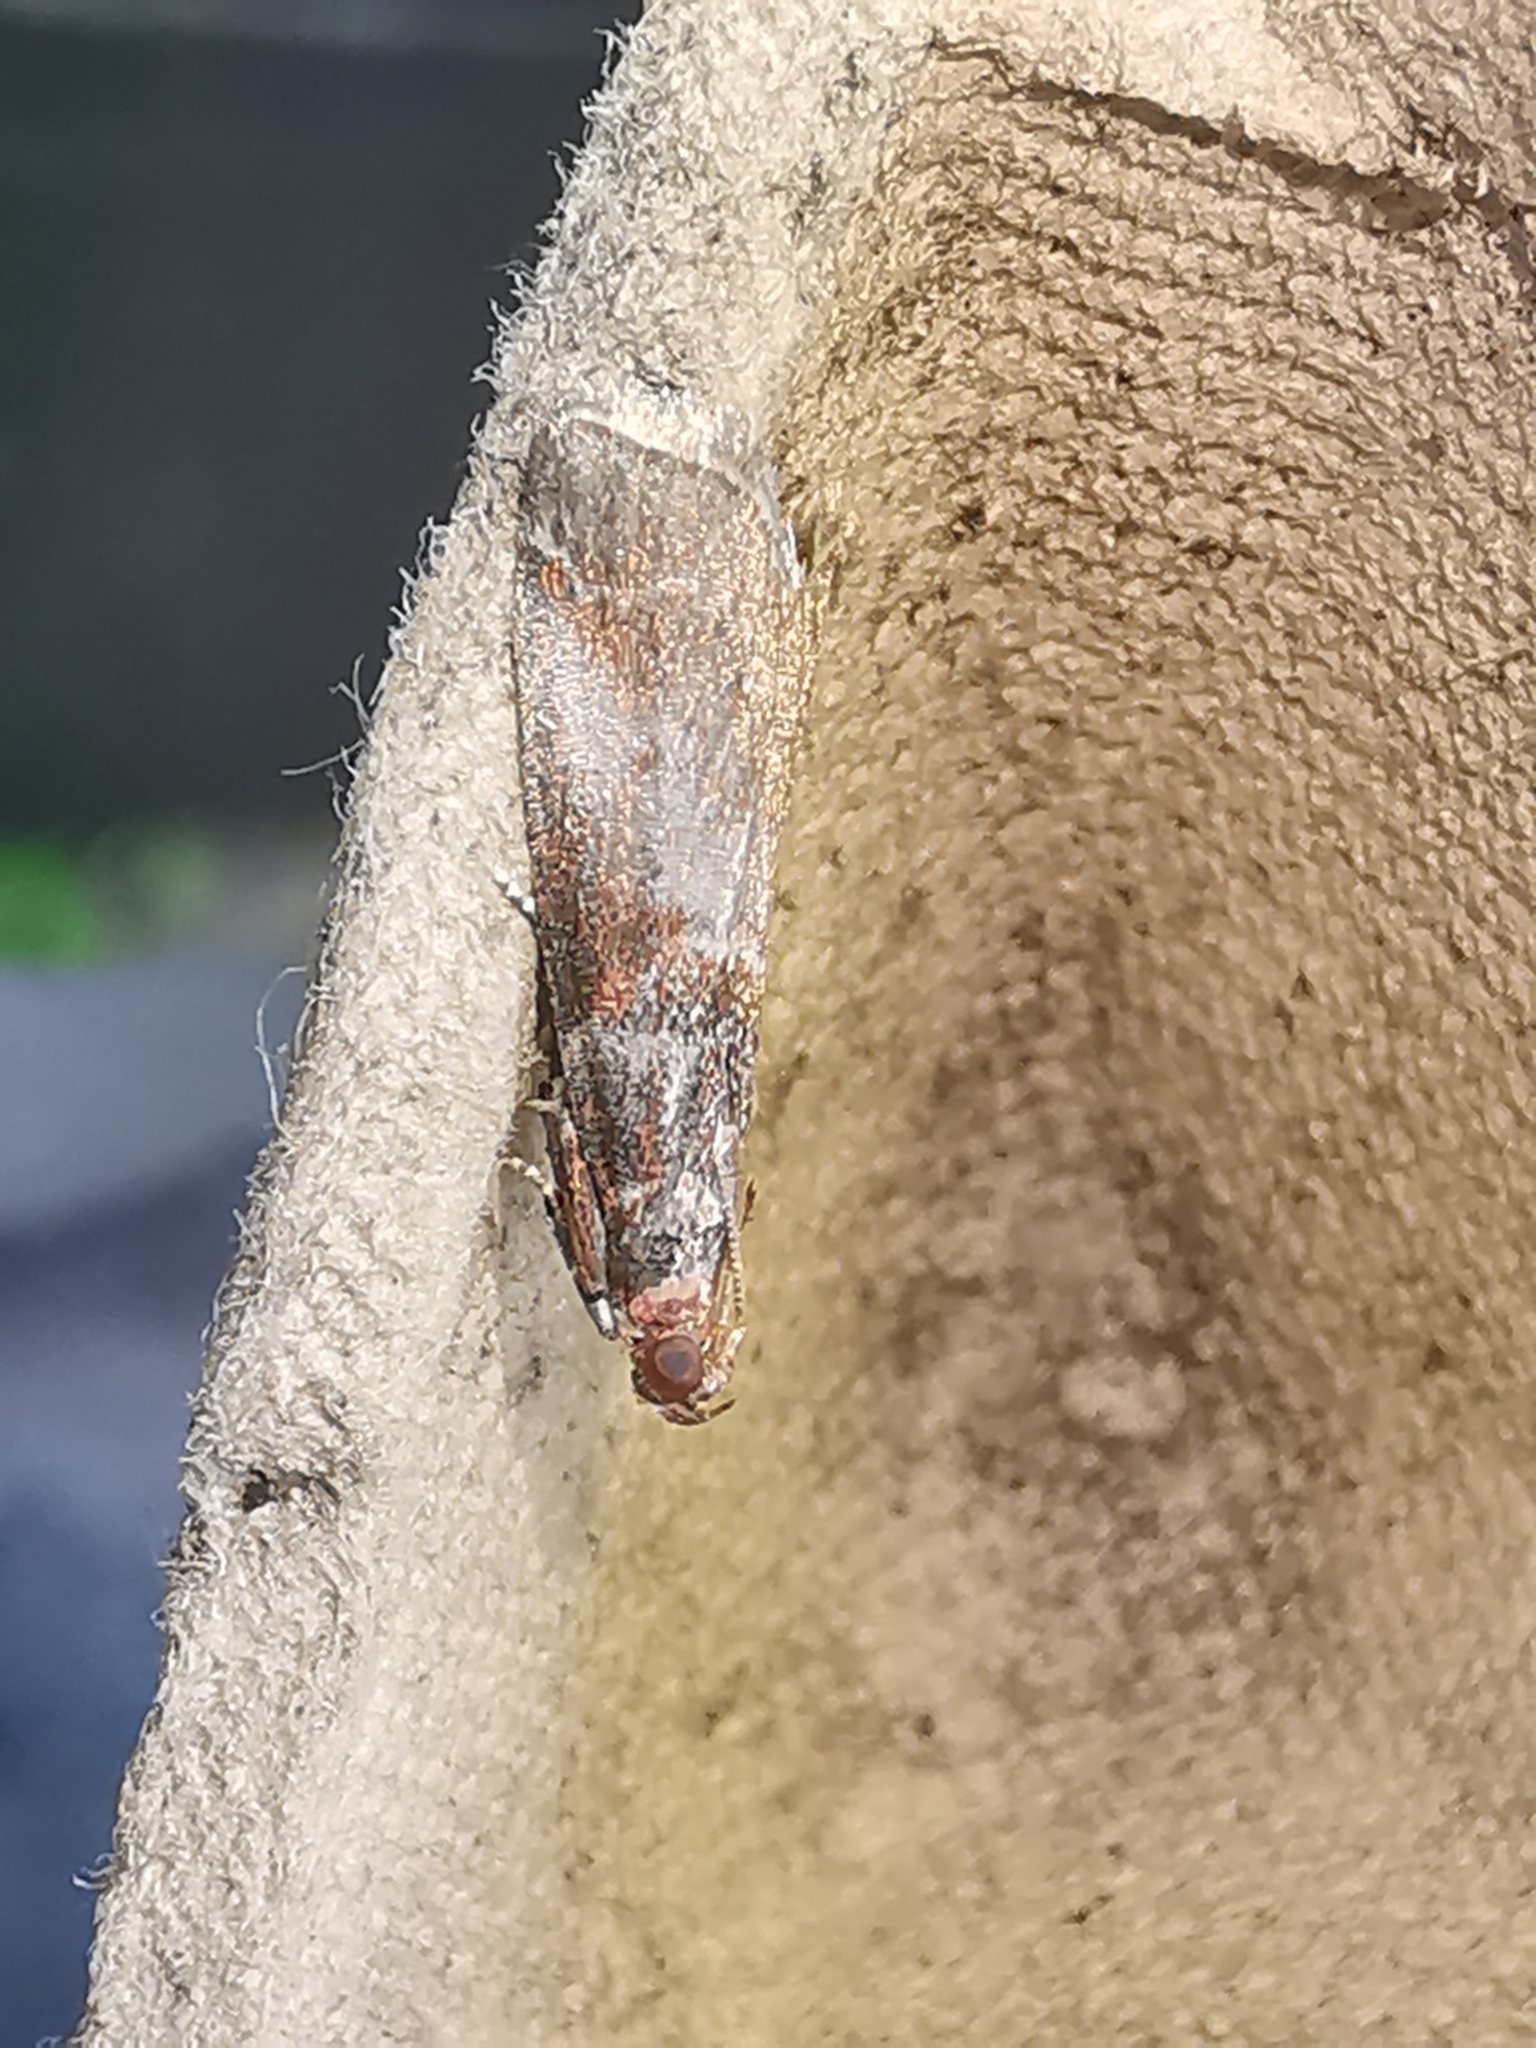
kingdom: Animalia
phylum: Arthropoda
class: Insecta
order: Lepidoptera
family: Pyralidae
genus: Acrobasis
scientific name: Acrobasis advenella
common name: Grey knot-horn
